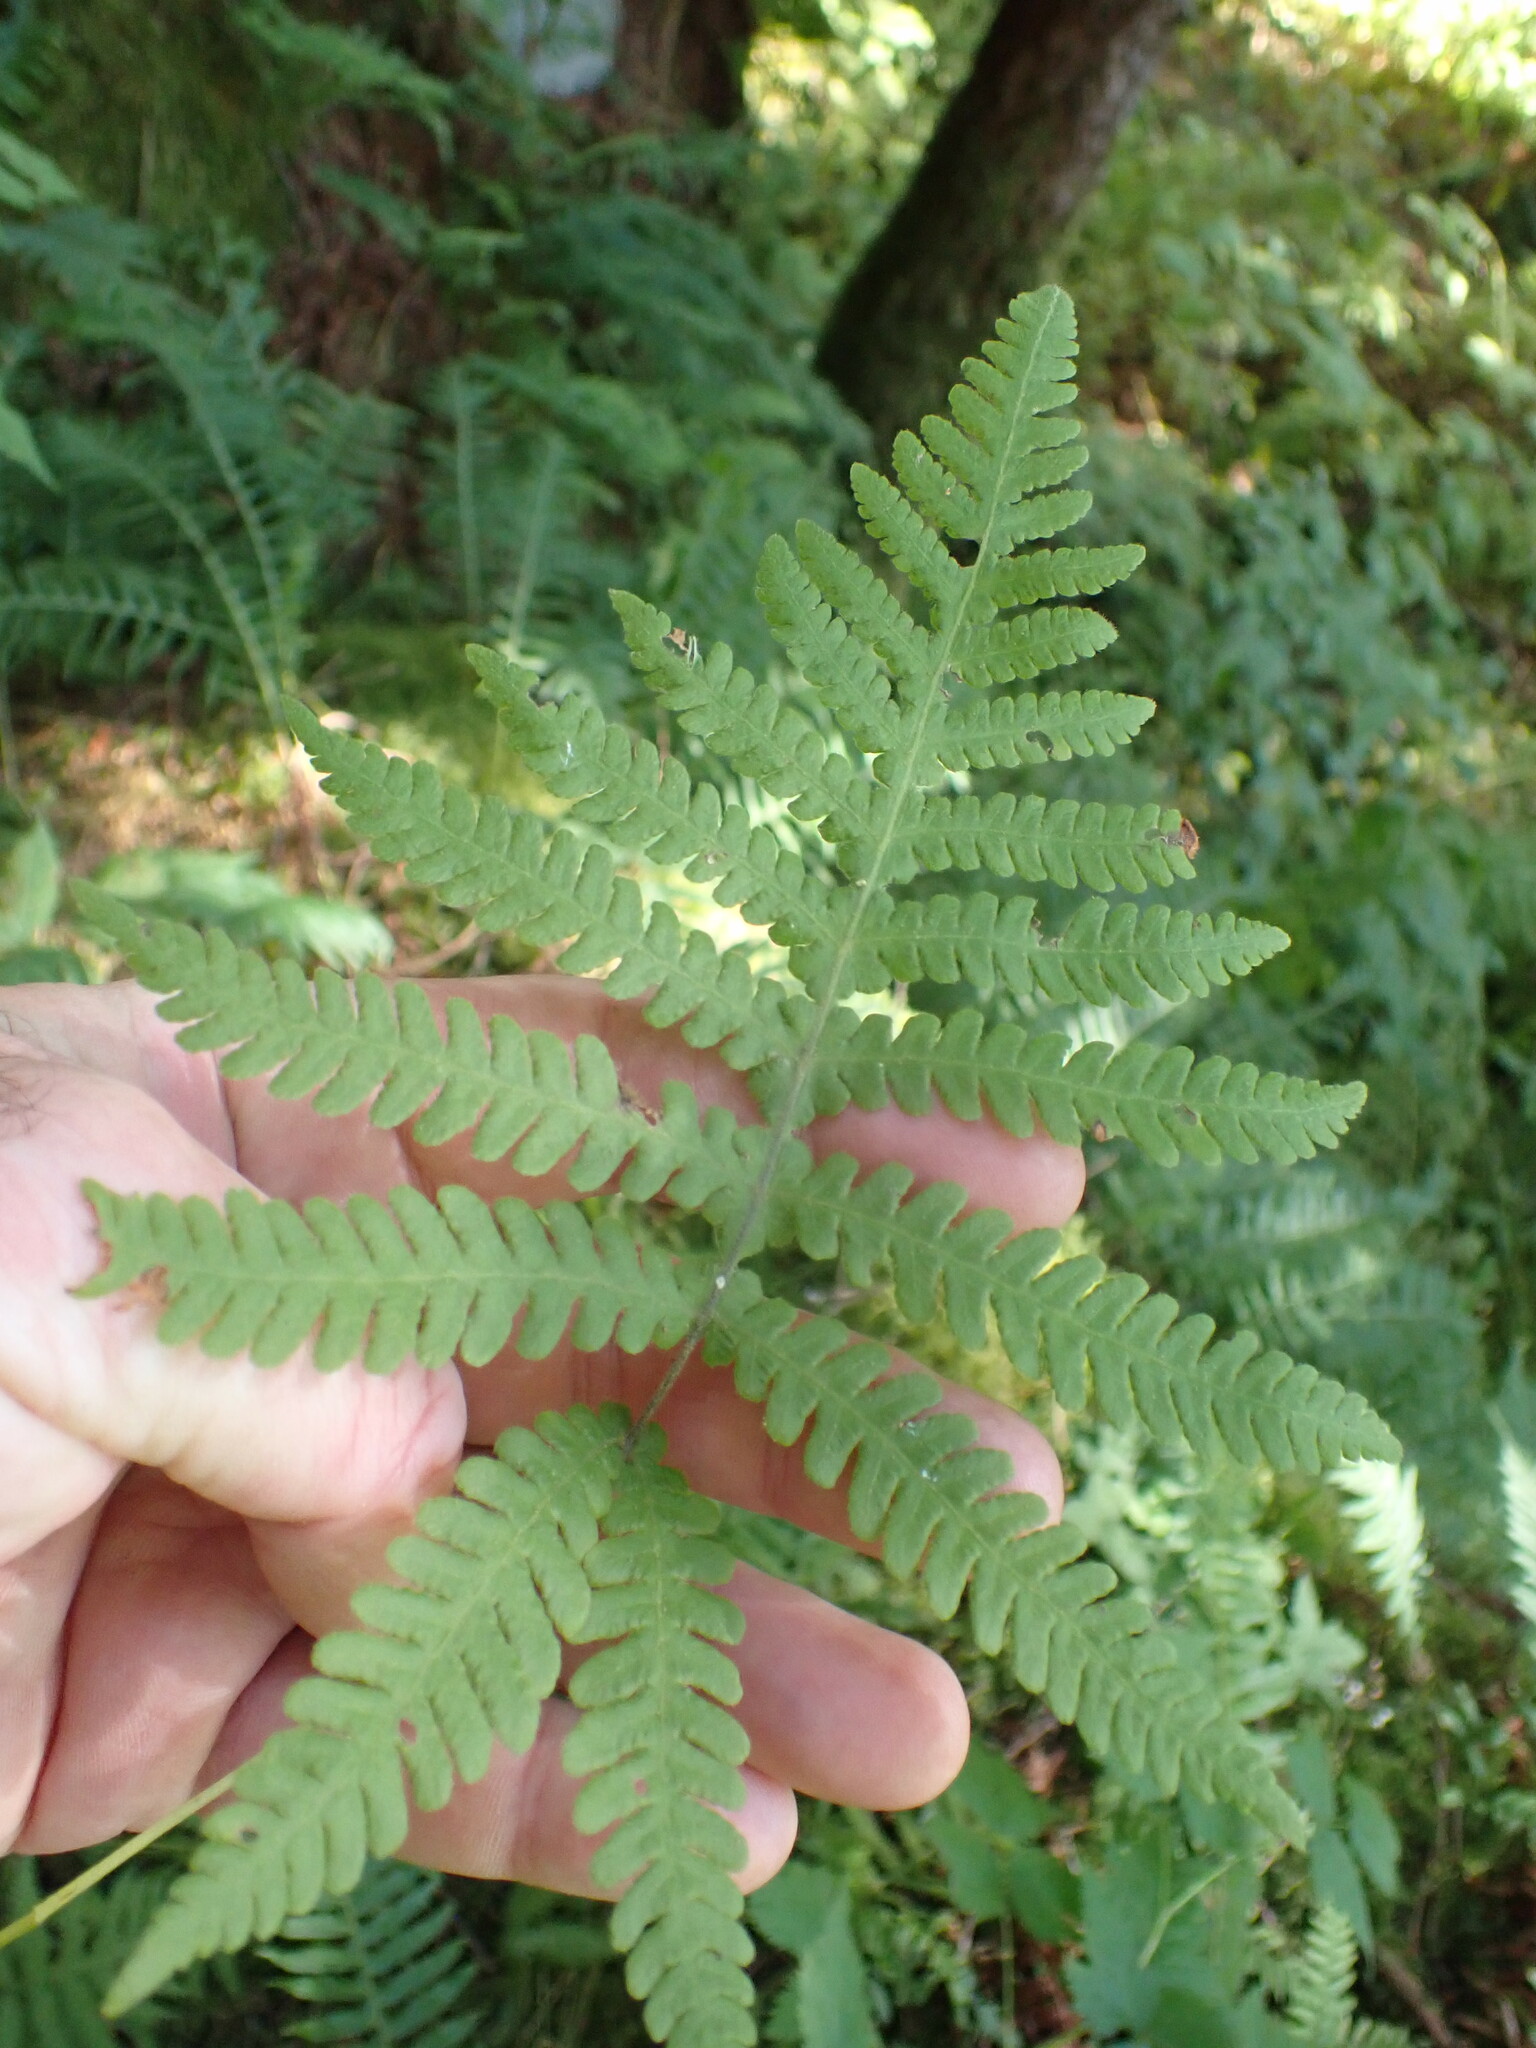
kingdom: Plantae
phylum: Tracheophyta
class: Polypodiopsida
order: Polypodiales
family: Thelypteridaceae
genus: Phegopteris
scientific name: Phegopteris connectilis
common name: Beech fern
